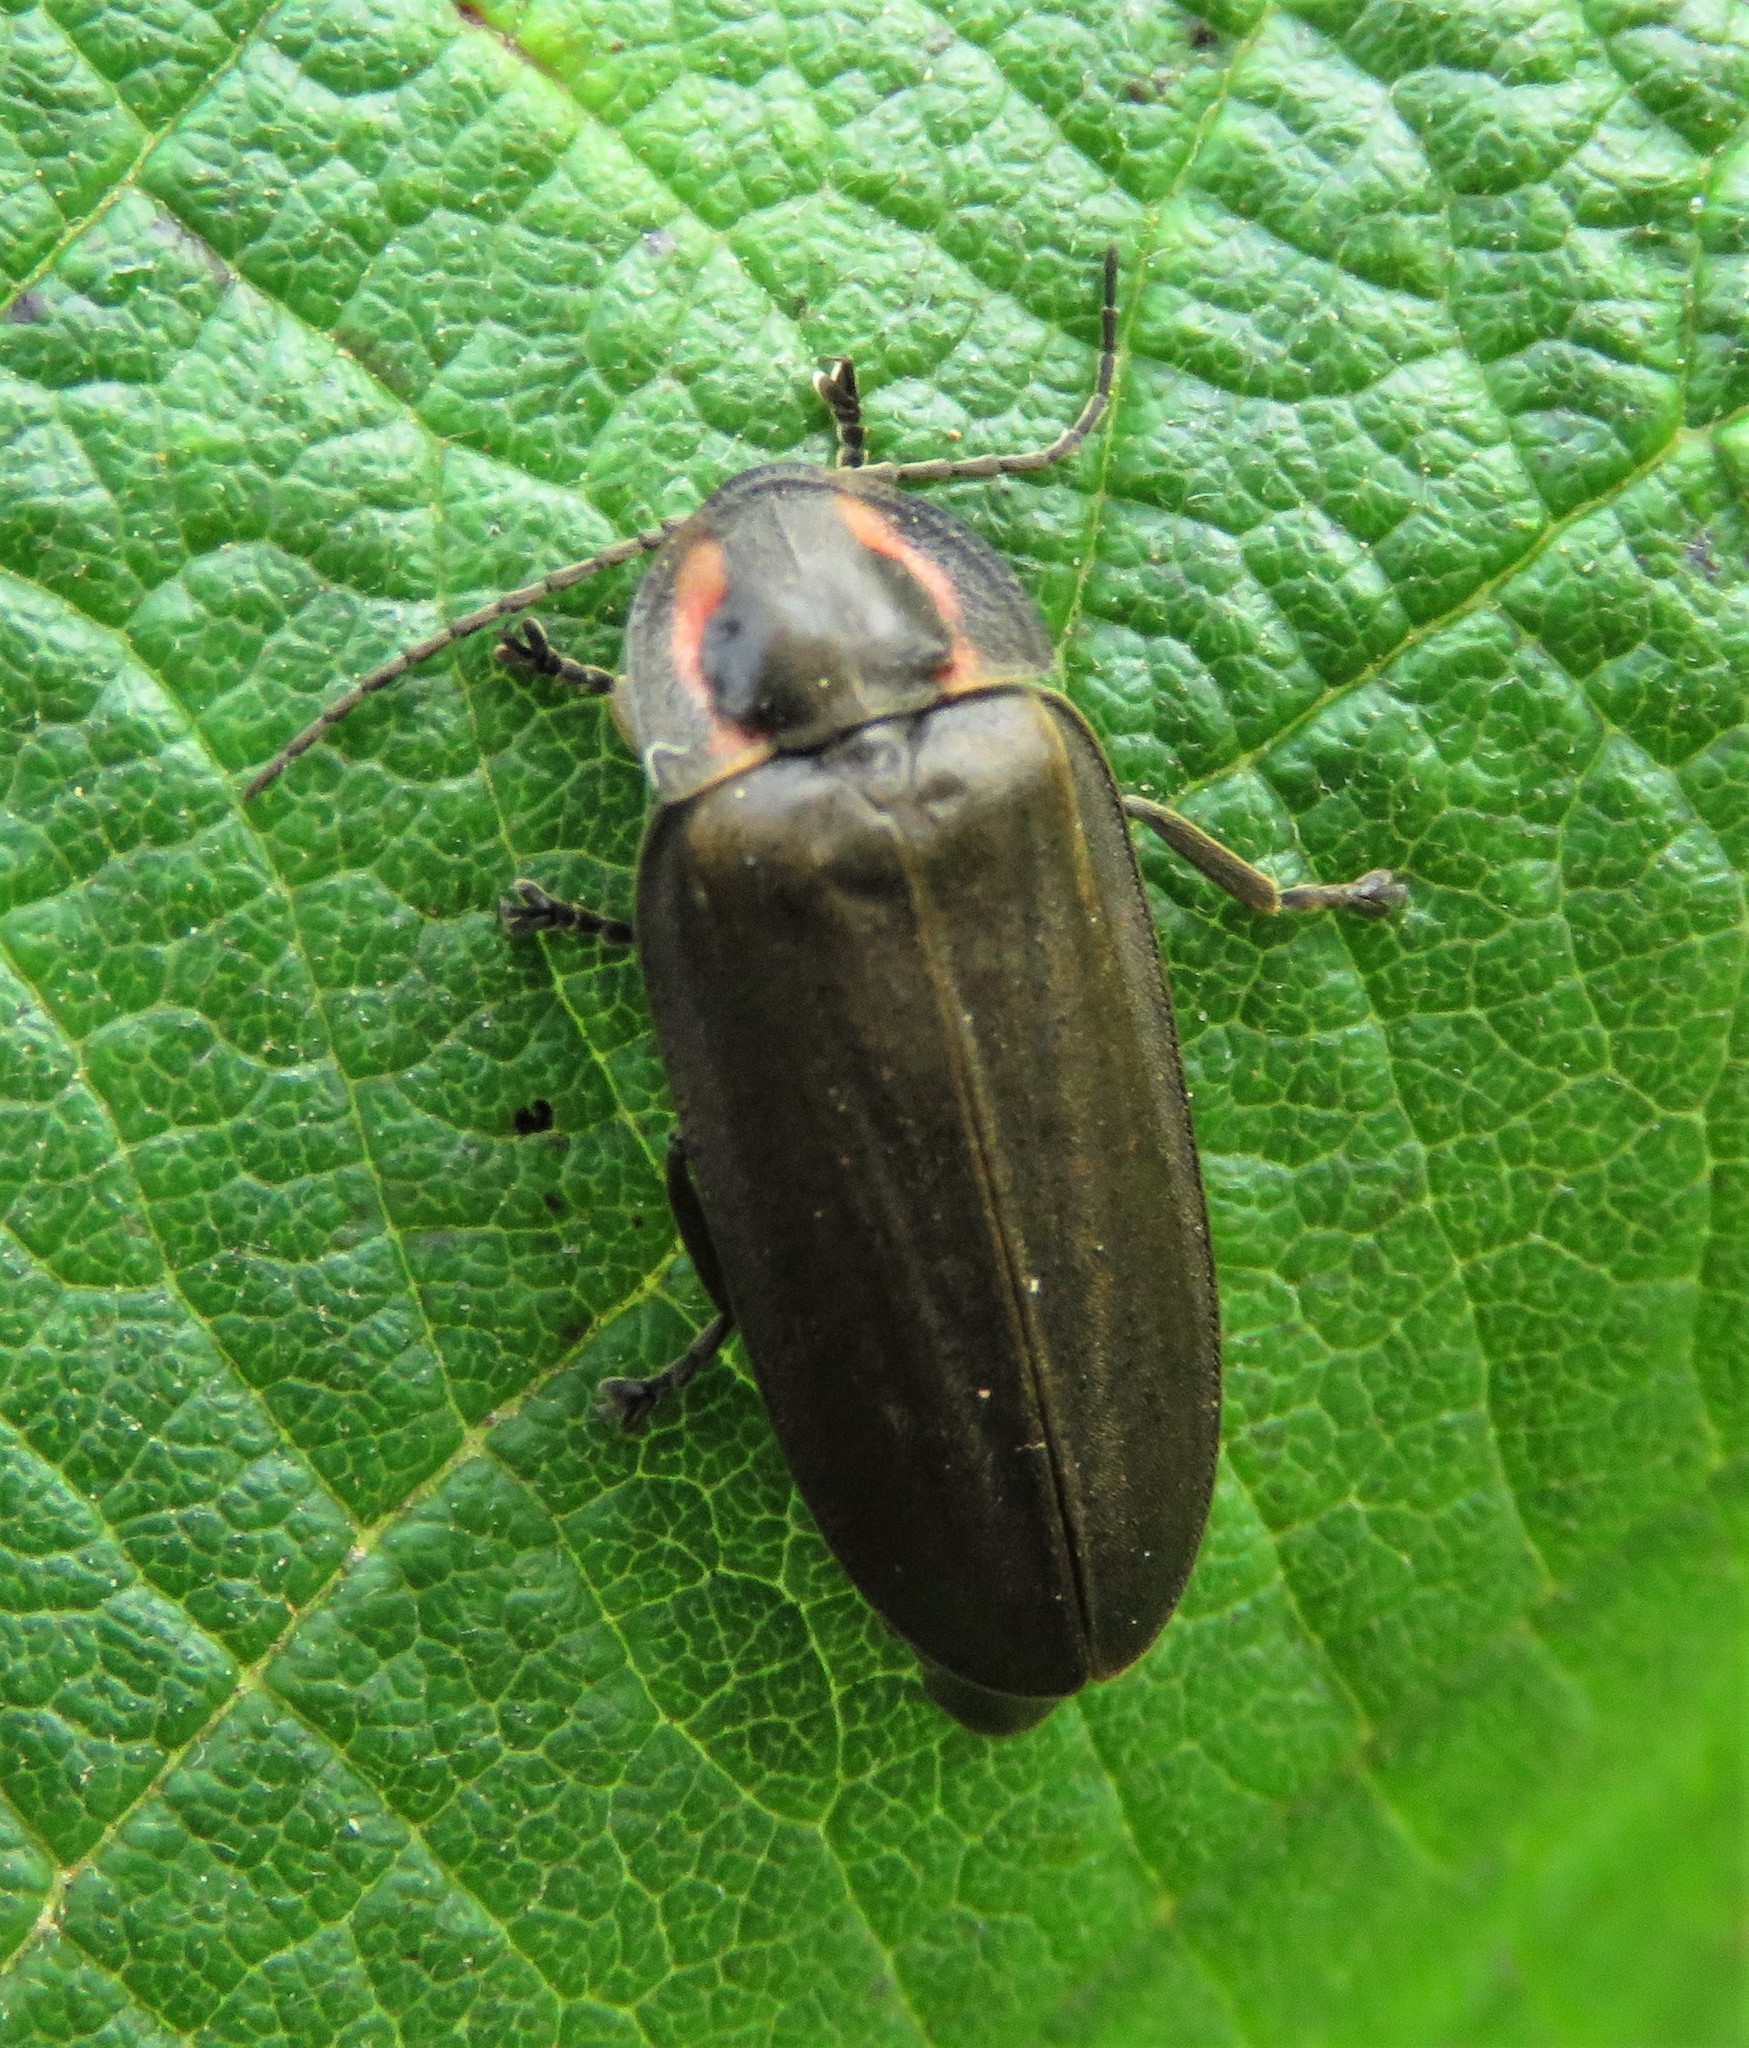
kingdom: Animalia
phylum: Arthropoda
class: Insecta
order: Coleoptera
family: Lampyridae
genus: Photinus
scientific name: Photinus corrusca
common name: Winter firefly
